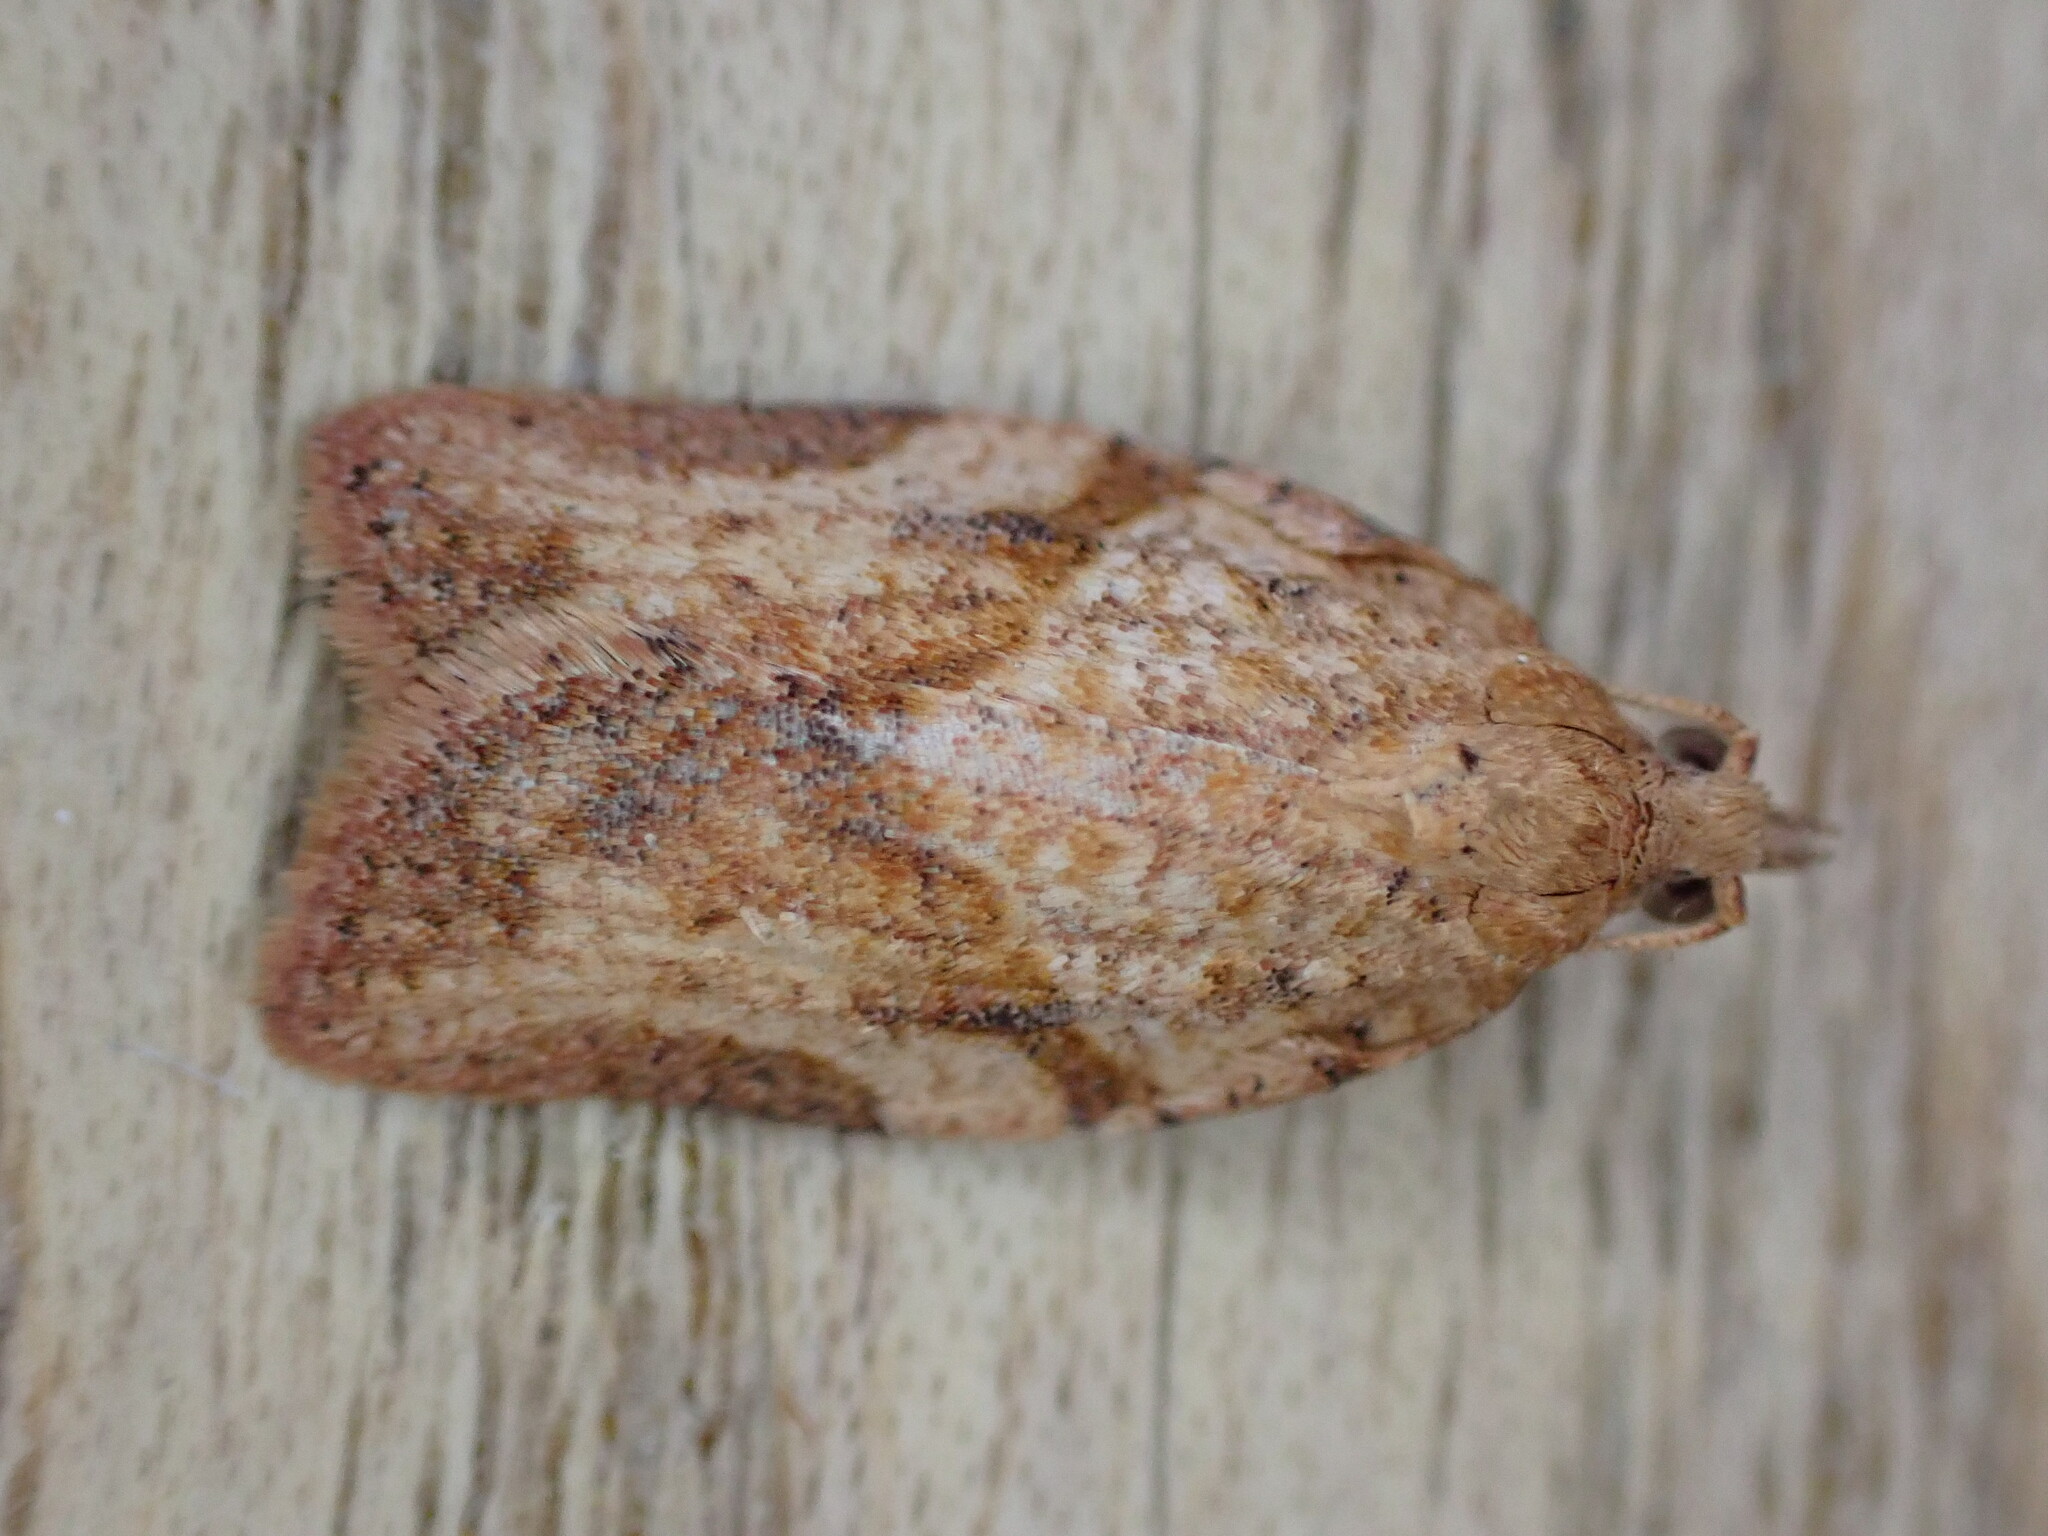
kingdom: Animalia
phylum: Arthropoda
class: Insecta
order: Lepidoptera
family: Tortricidae
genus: Epiphyas
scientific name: Epiphyas postvittana
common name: Light brown apple moth
